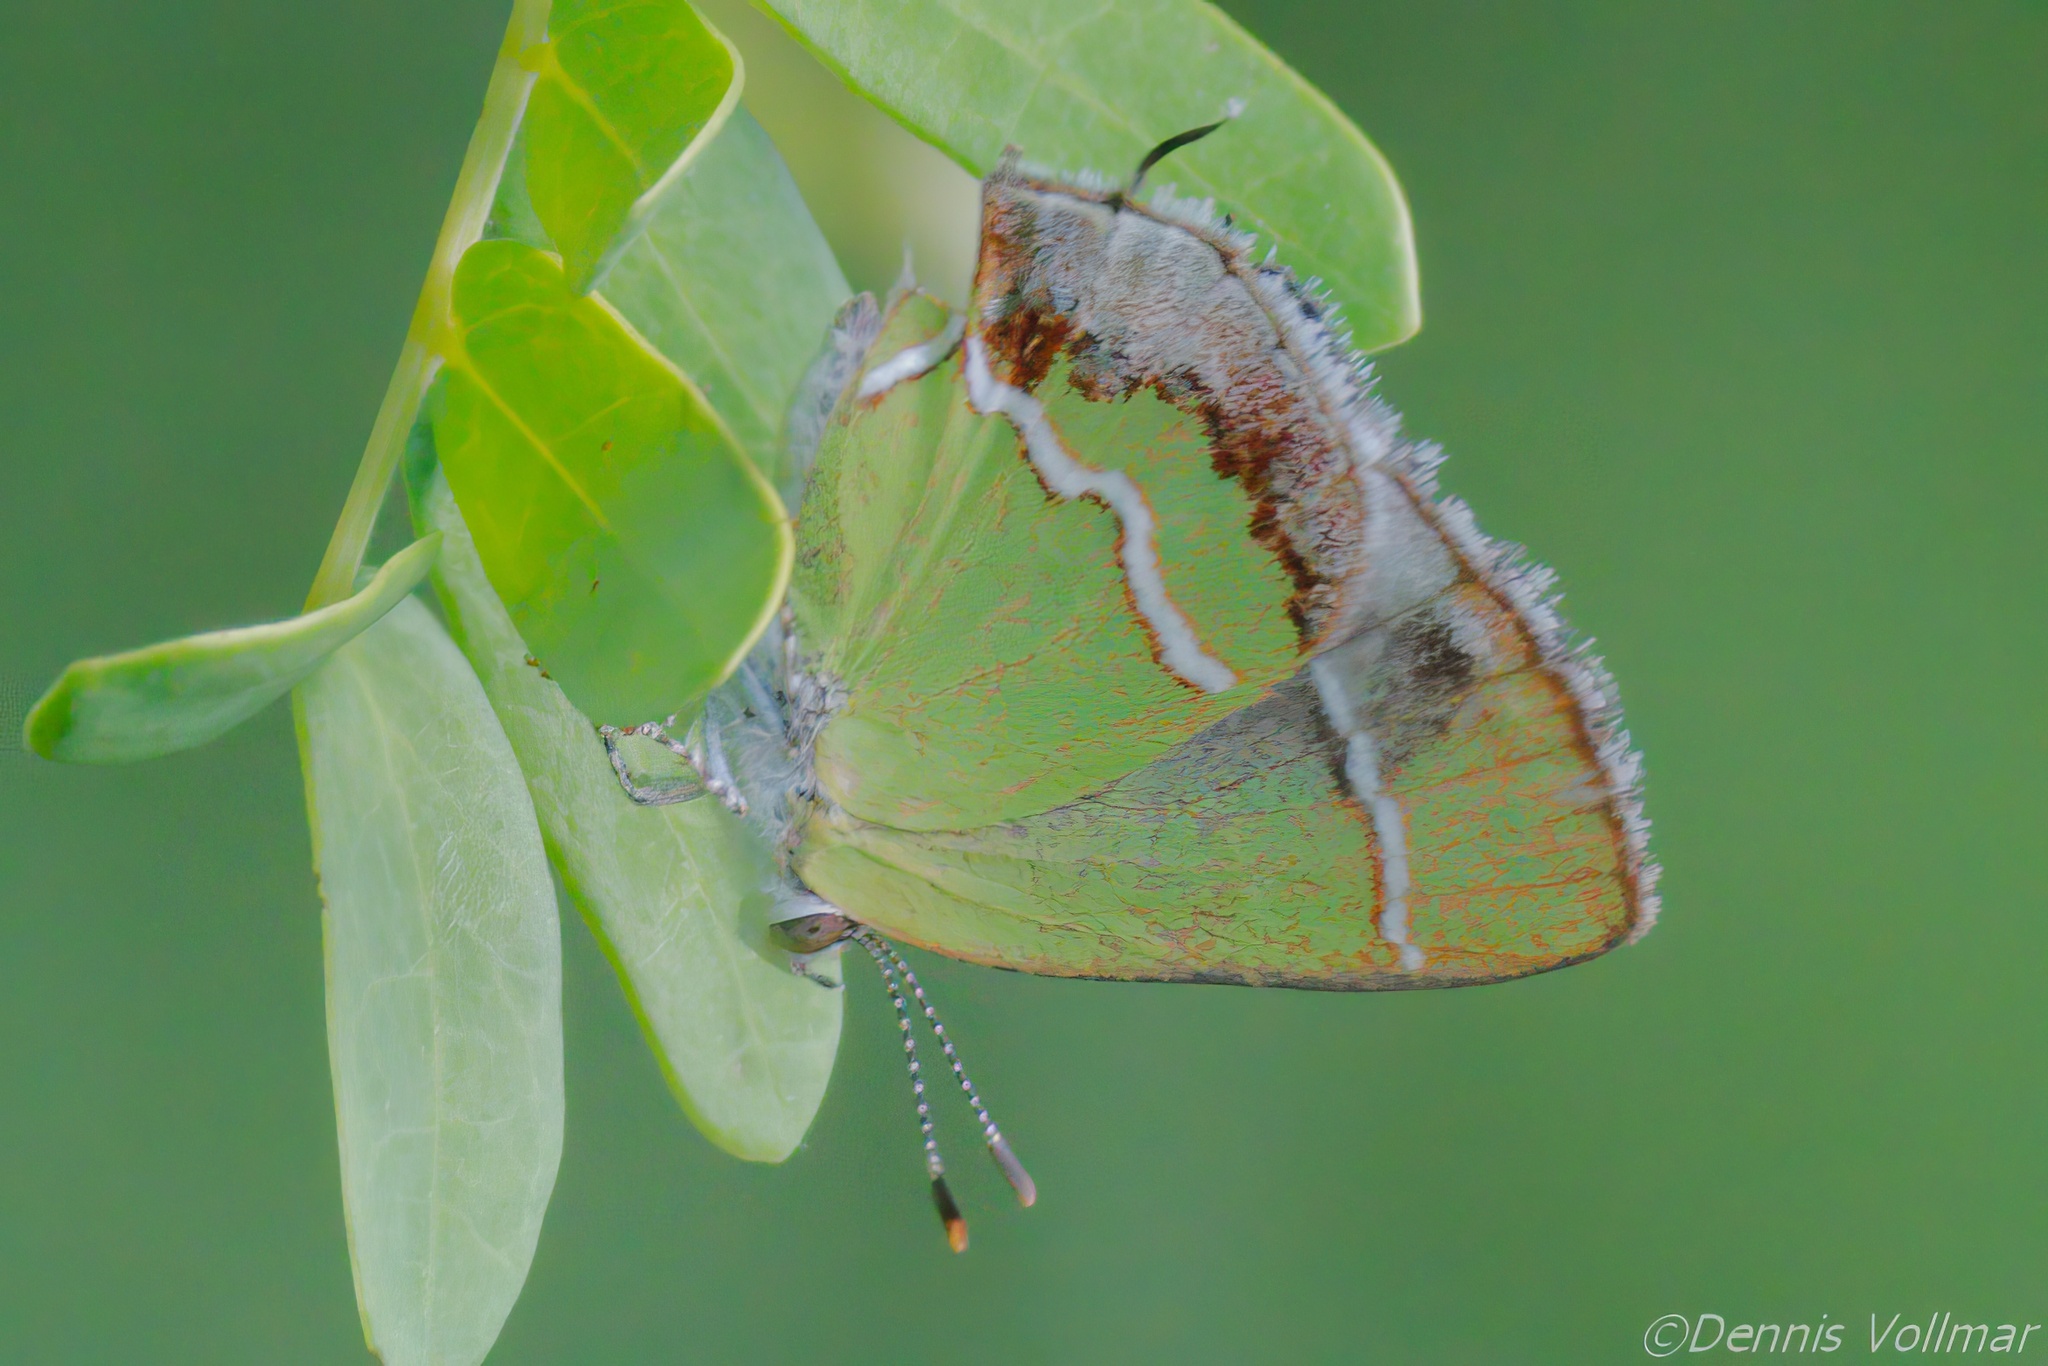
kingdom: Animalia
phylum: Arthropoda
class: Insecta
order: Lepidoptera
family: Lycaenidae
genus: Chlorostrymon
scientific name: Chlorostrymon simaethis
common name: Silver-banded hairstreak
